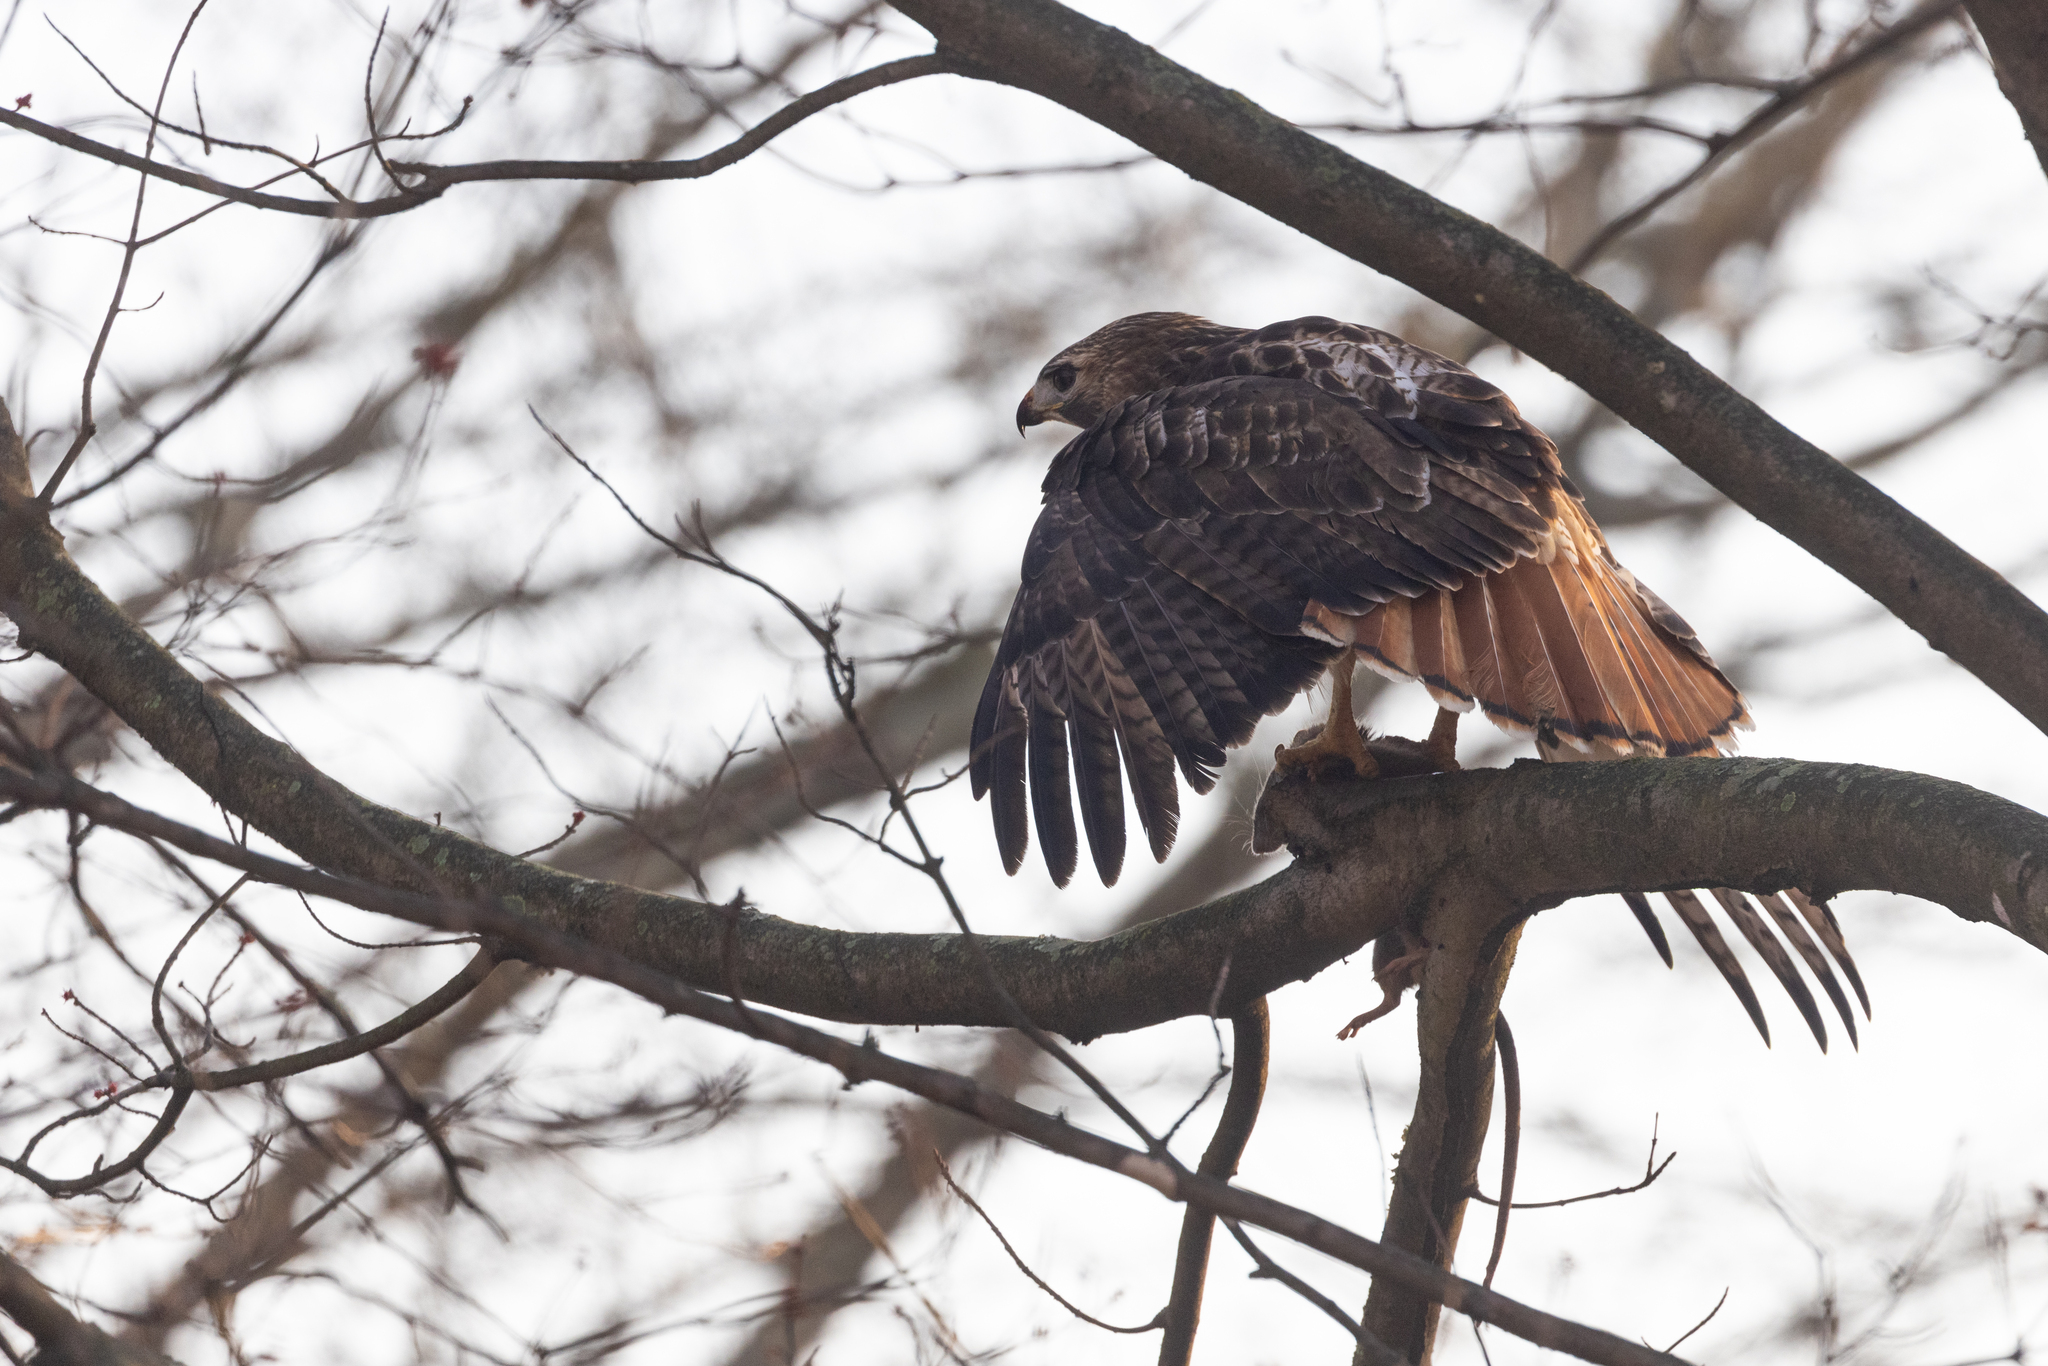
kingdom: Animalia
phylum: Chordata
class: Aves
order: Accipitriformes
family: Accipitridae
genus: Buteo
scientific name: Buteo jamaicensis
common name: Red-tailed hawk
